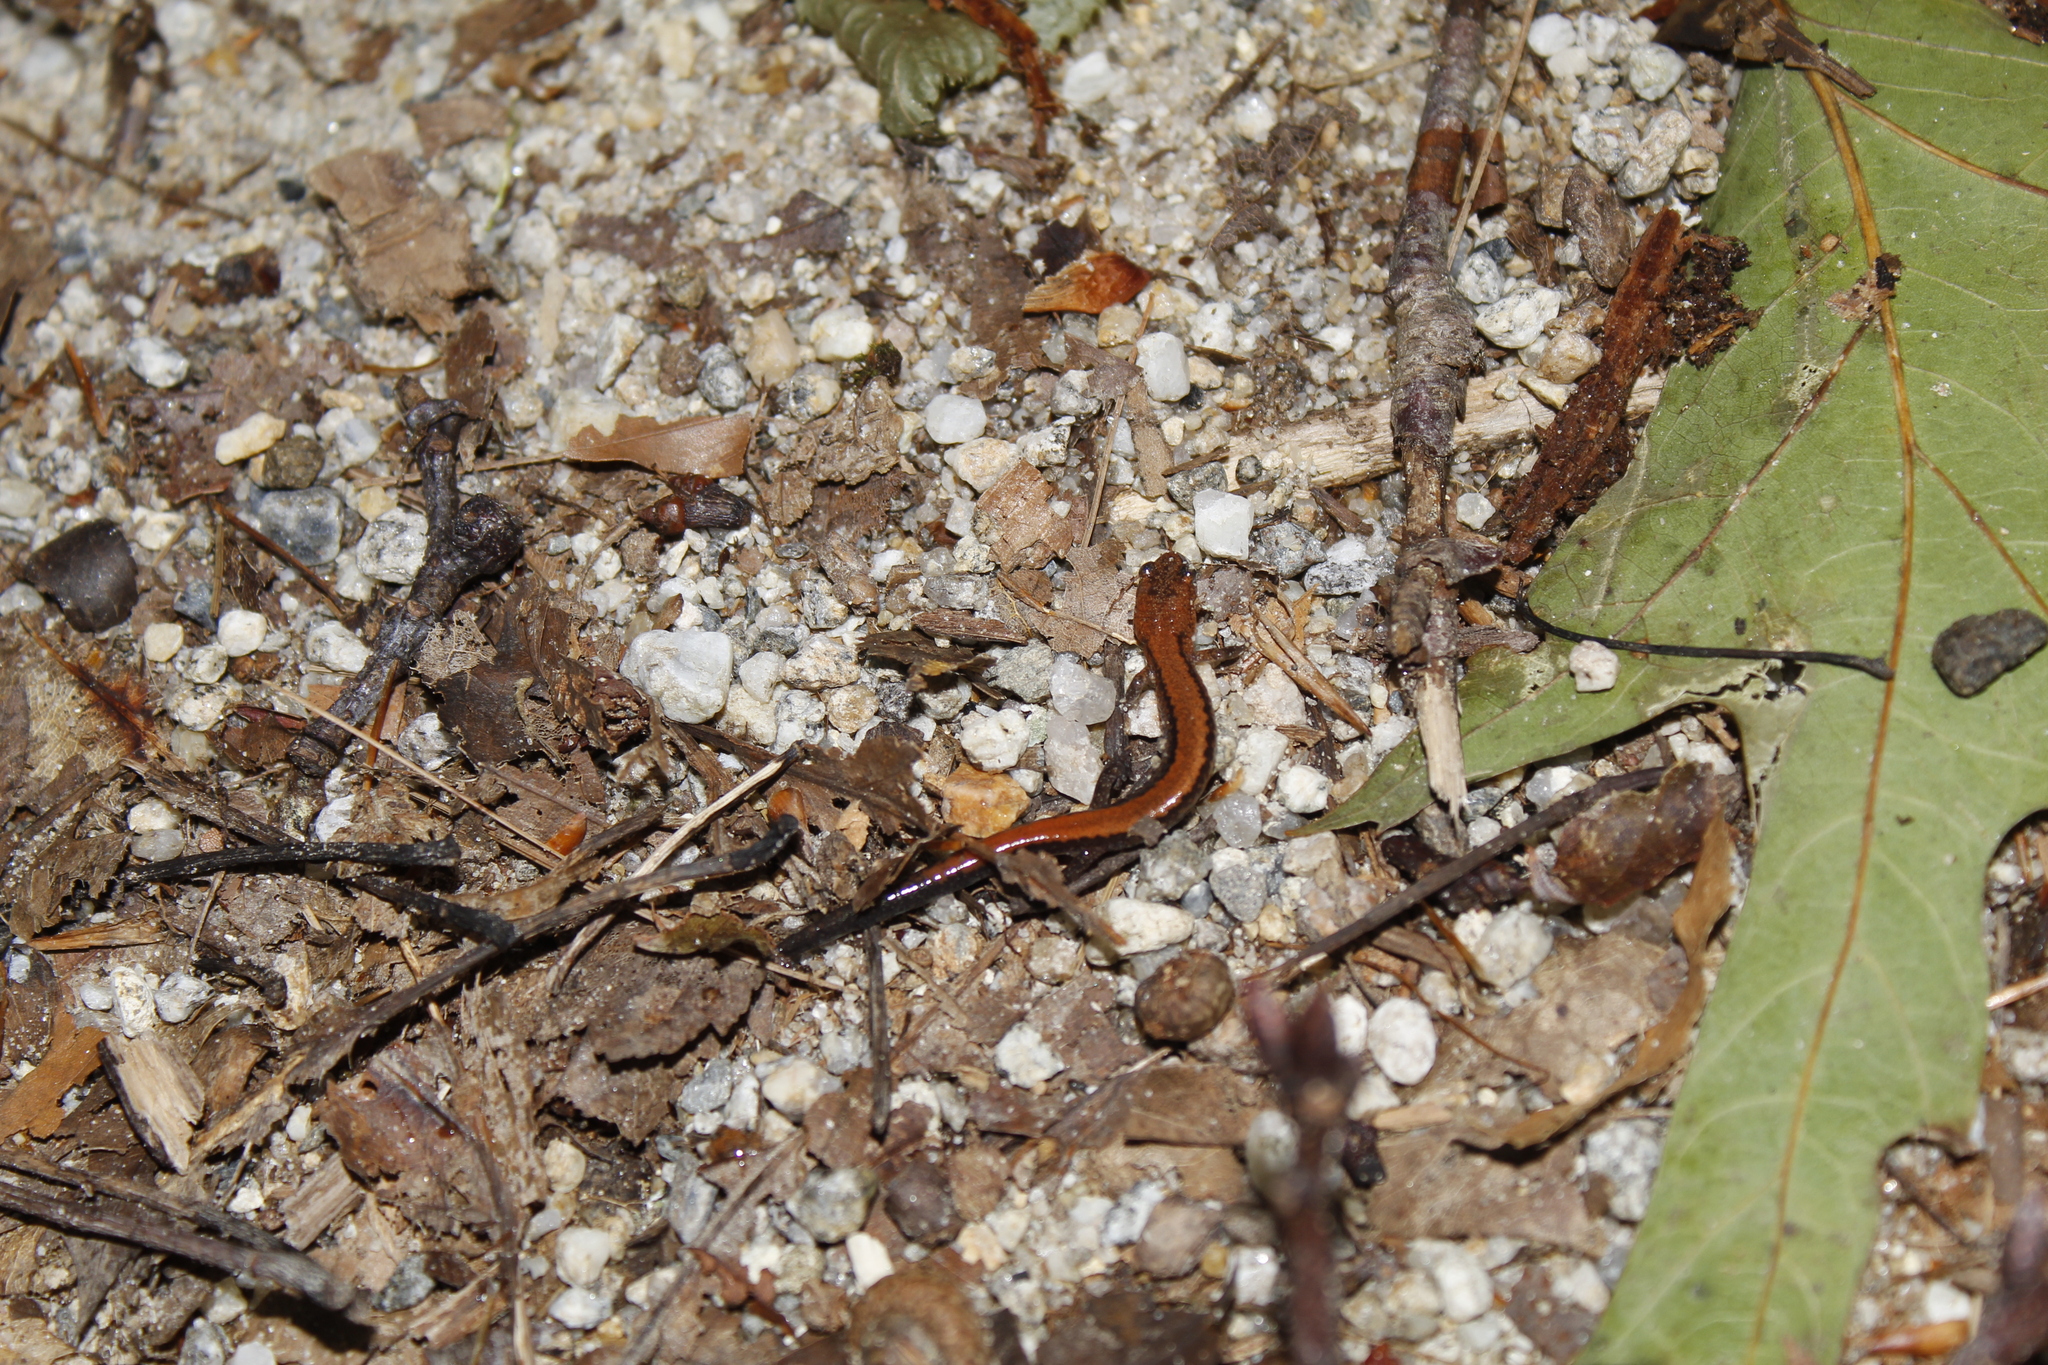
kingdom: Animalia
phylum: Chordata
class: Amphibia
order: Caudata
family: Plethodontidae
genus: Plethodon
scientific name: Plethodon cinereus
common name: Redback salamander
